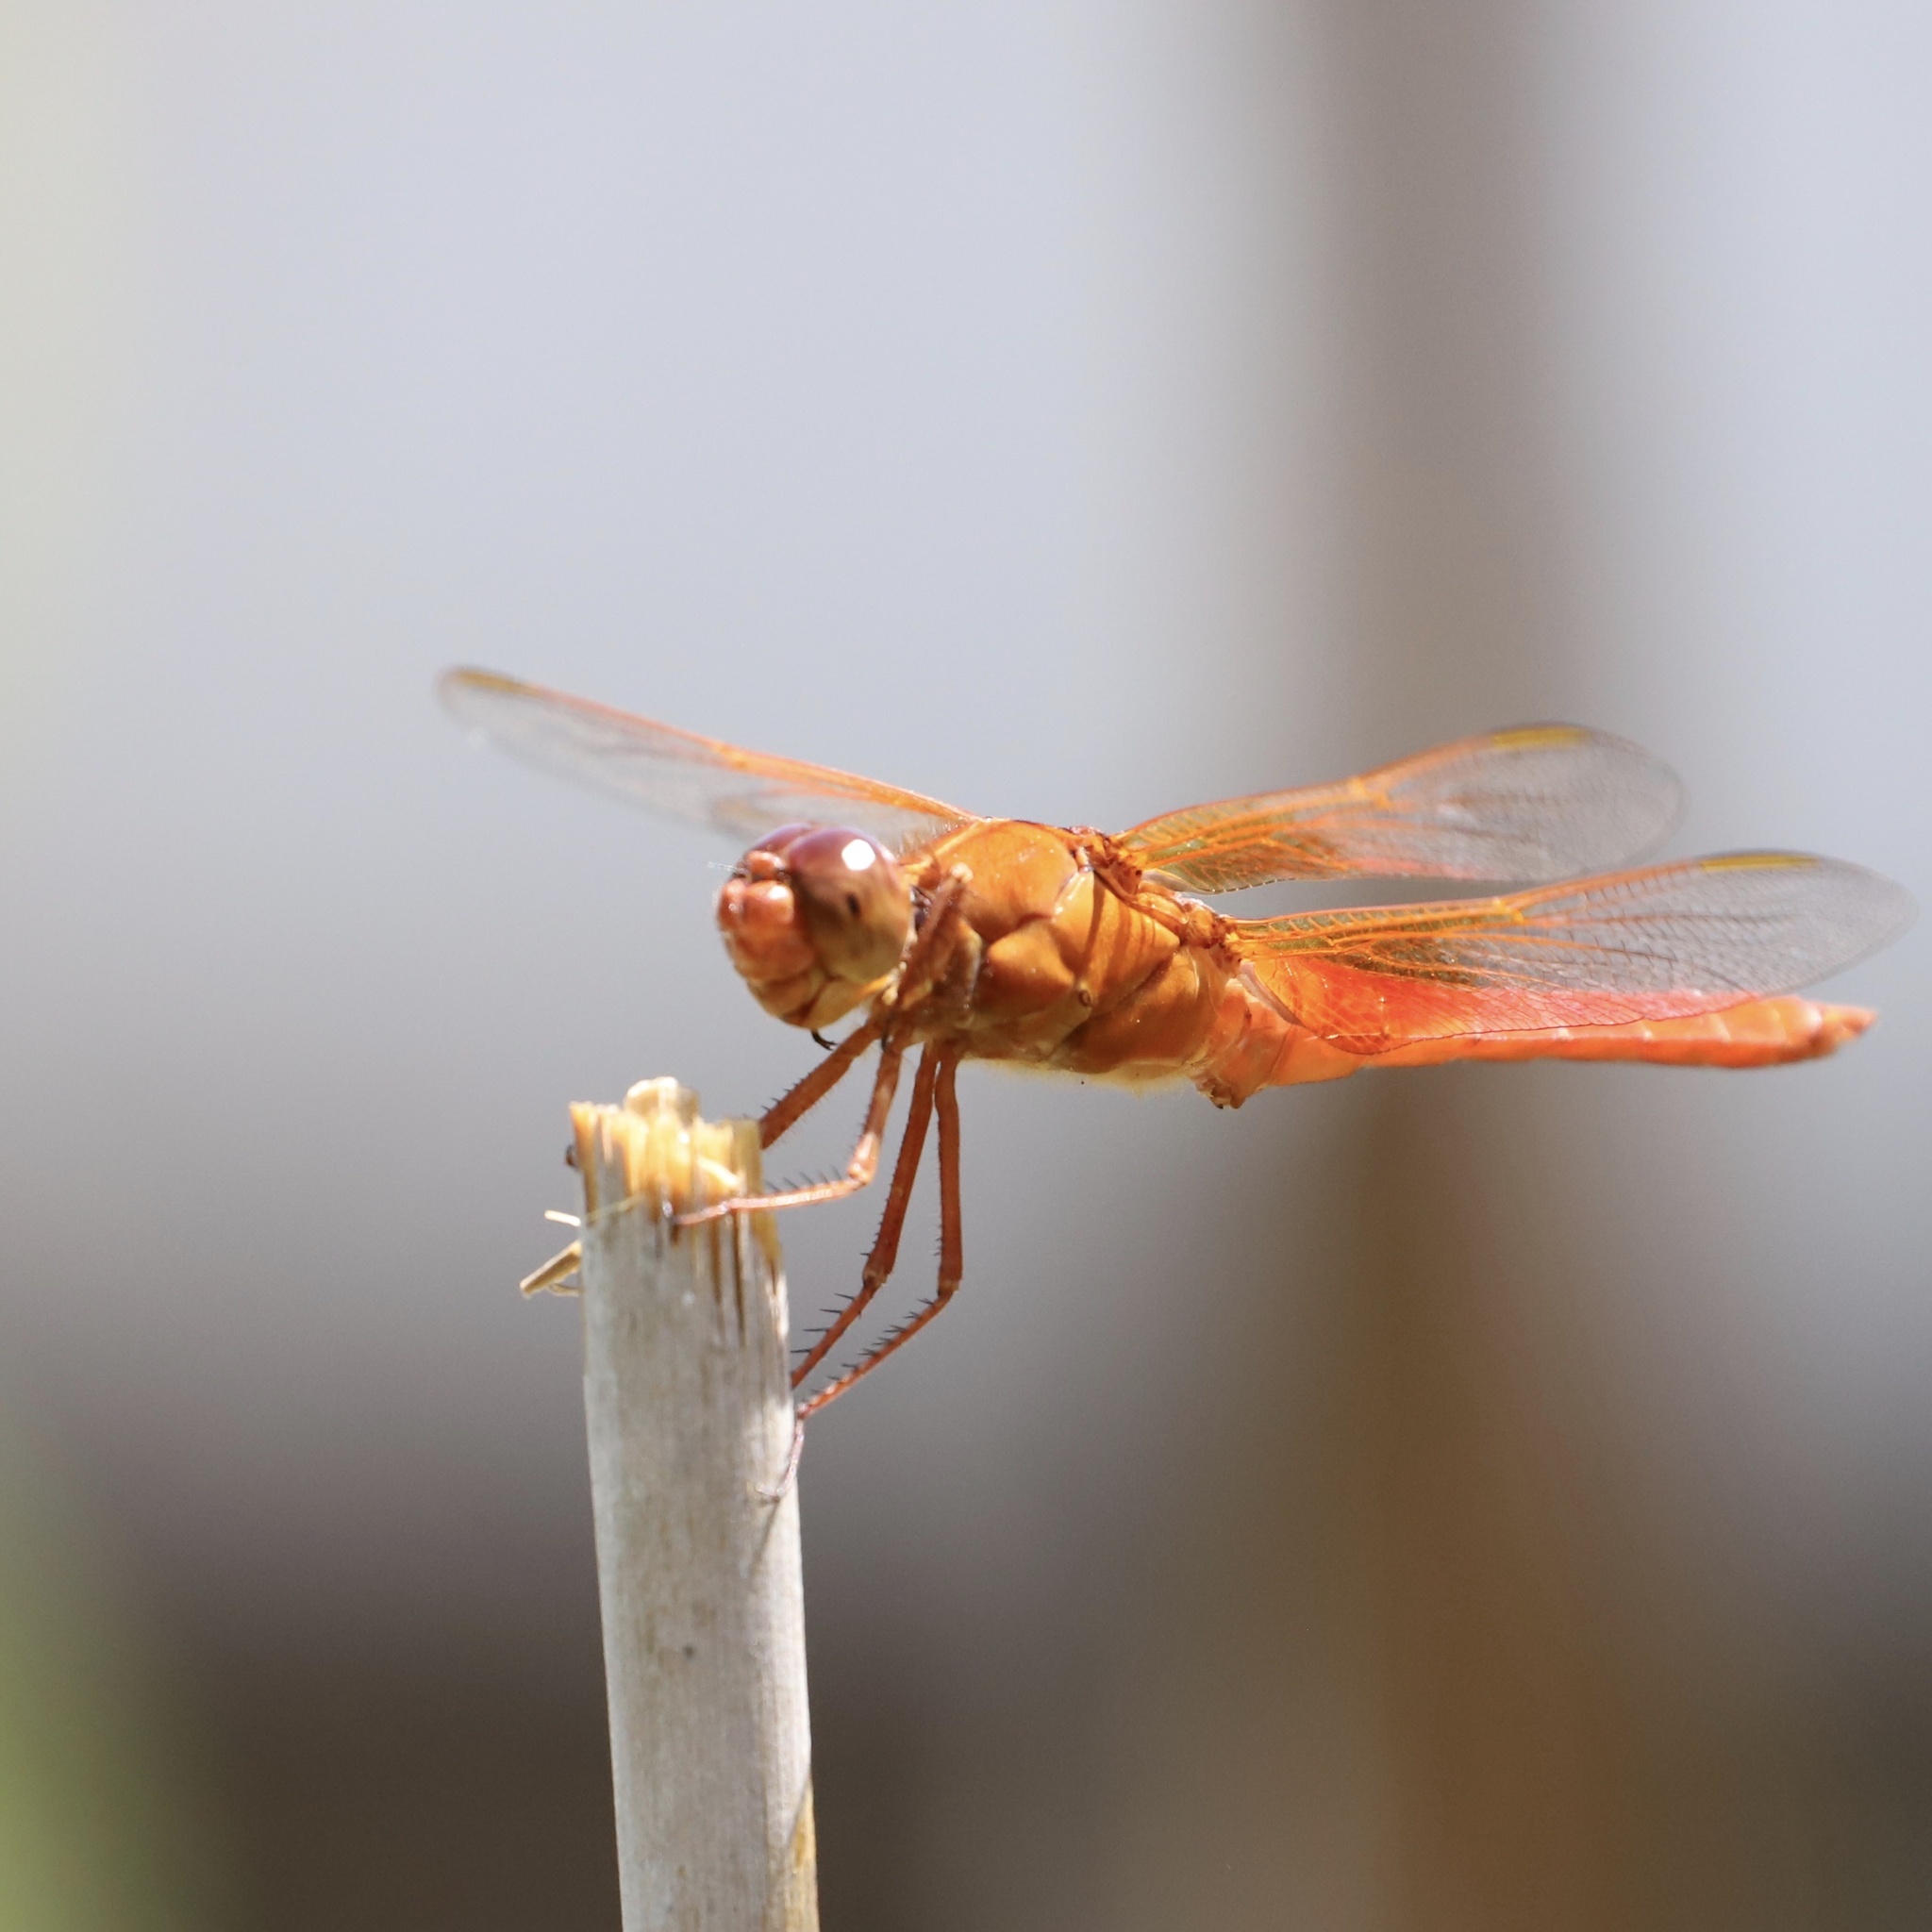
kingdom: Animalia
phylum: Arthropoda
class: Insecta
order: Odonata
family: Libellulidae
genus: Libellula
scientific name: Libellula croceipennis
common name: Neon skimmer
